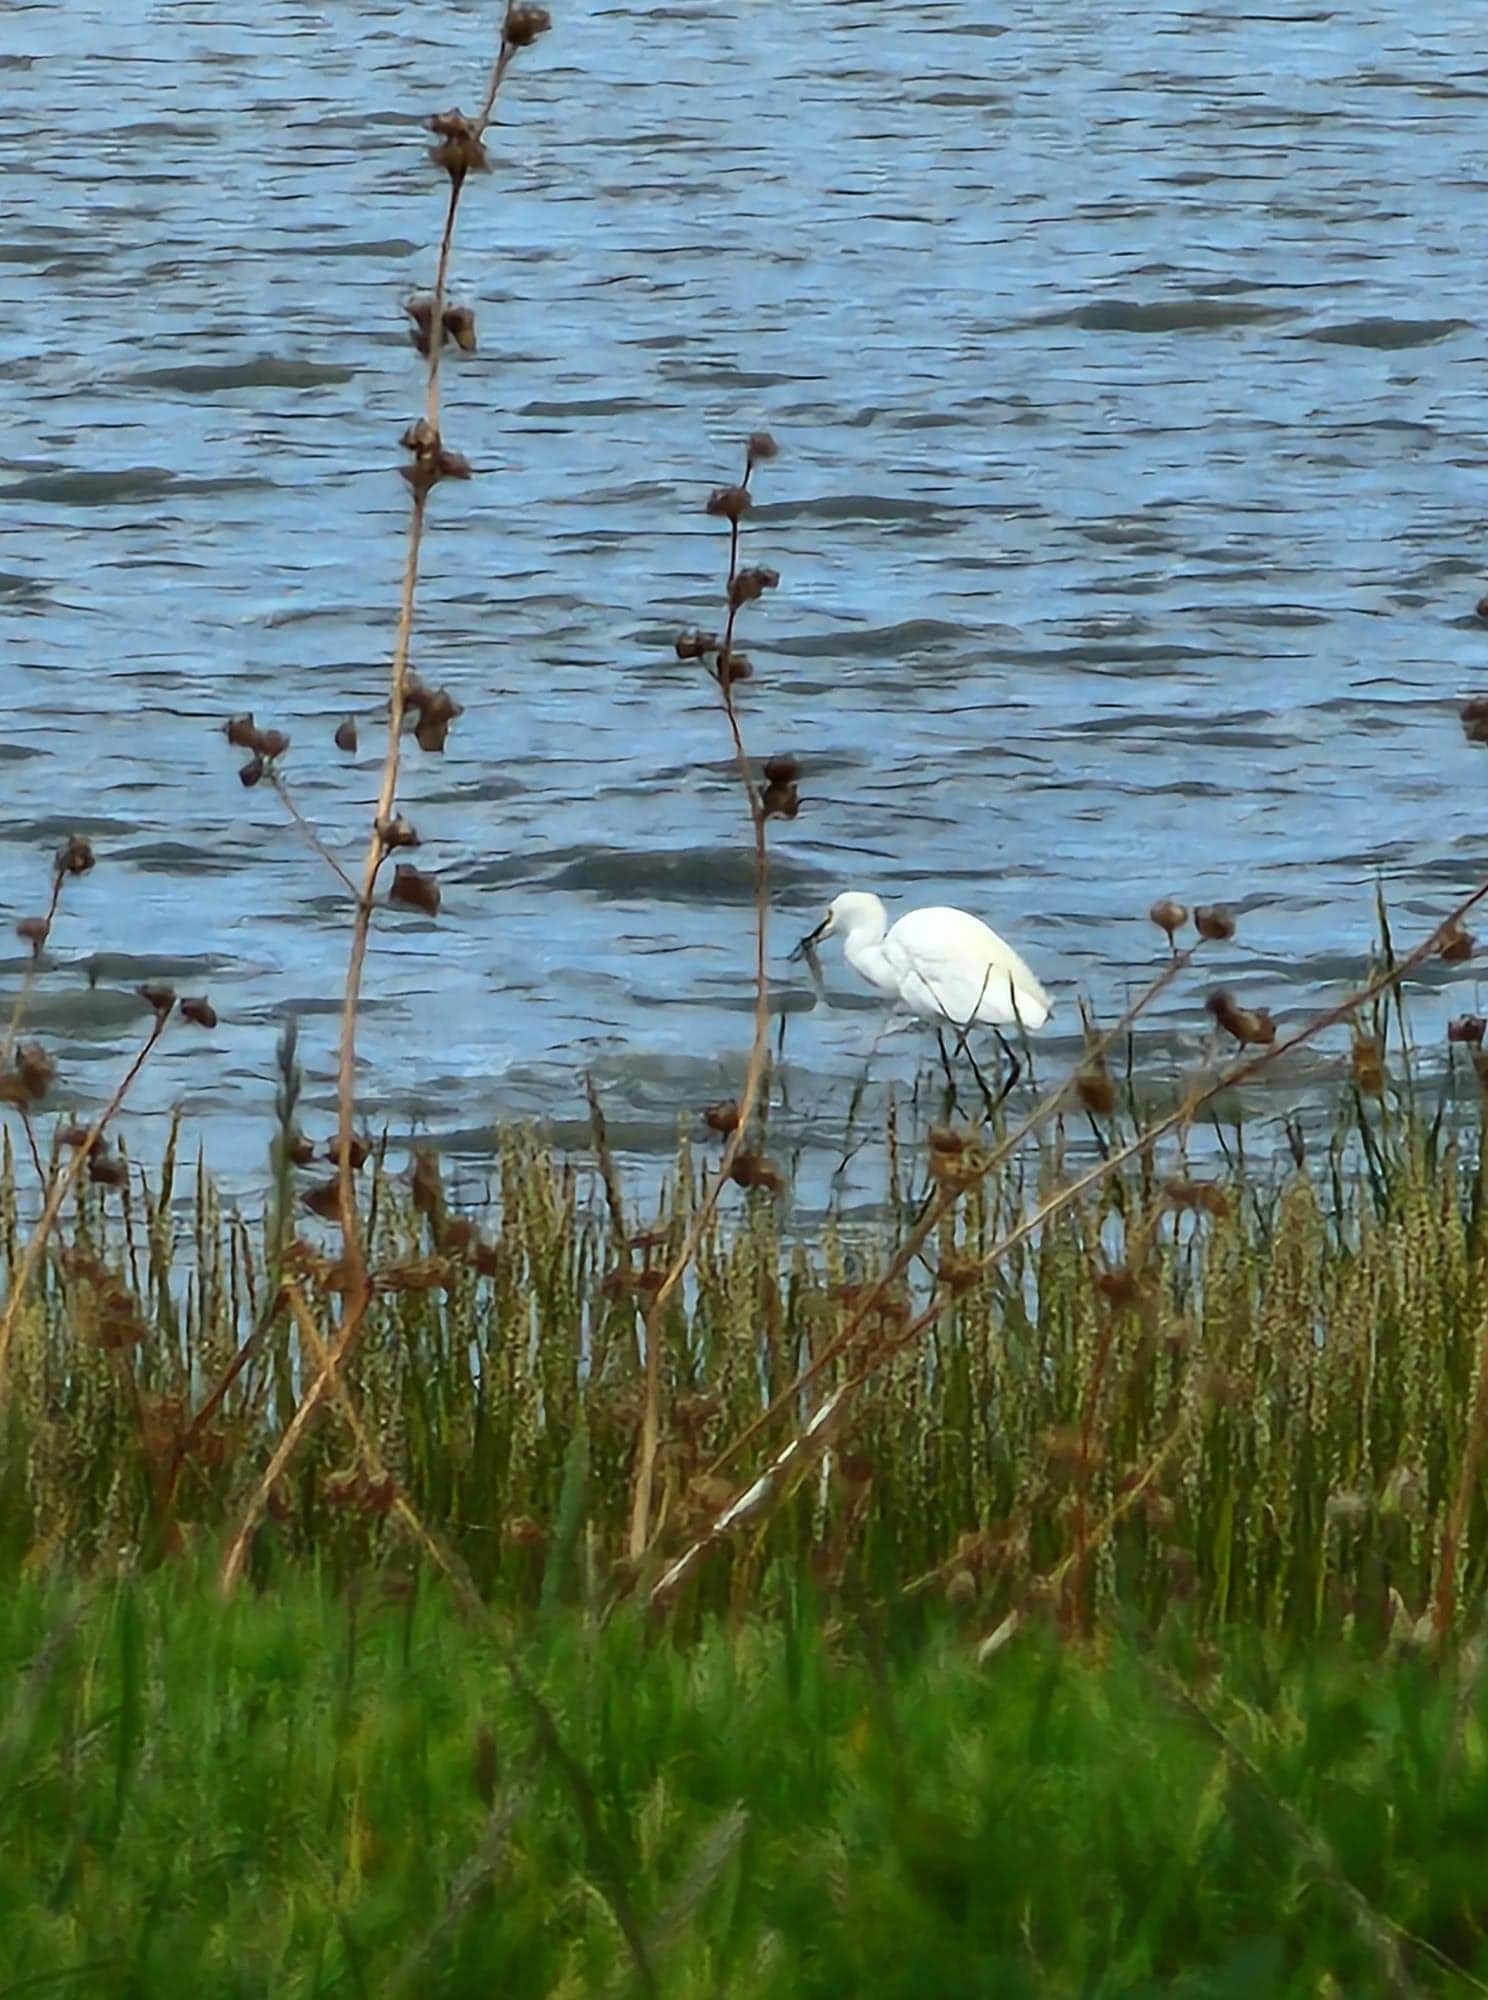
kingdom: Animalia
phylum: Chordata
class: Aves
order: Pelecaniformes
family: Ardeidae
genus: Egretta
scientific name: Egretta thula
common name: Snowy egret
